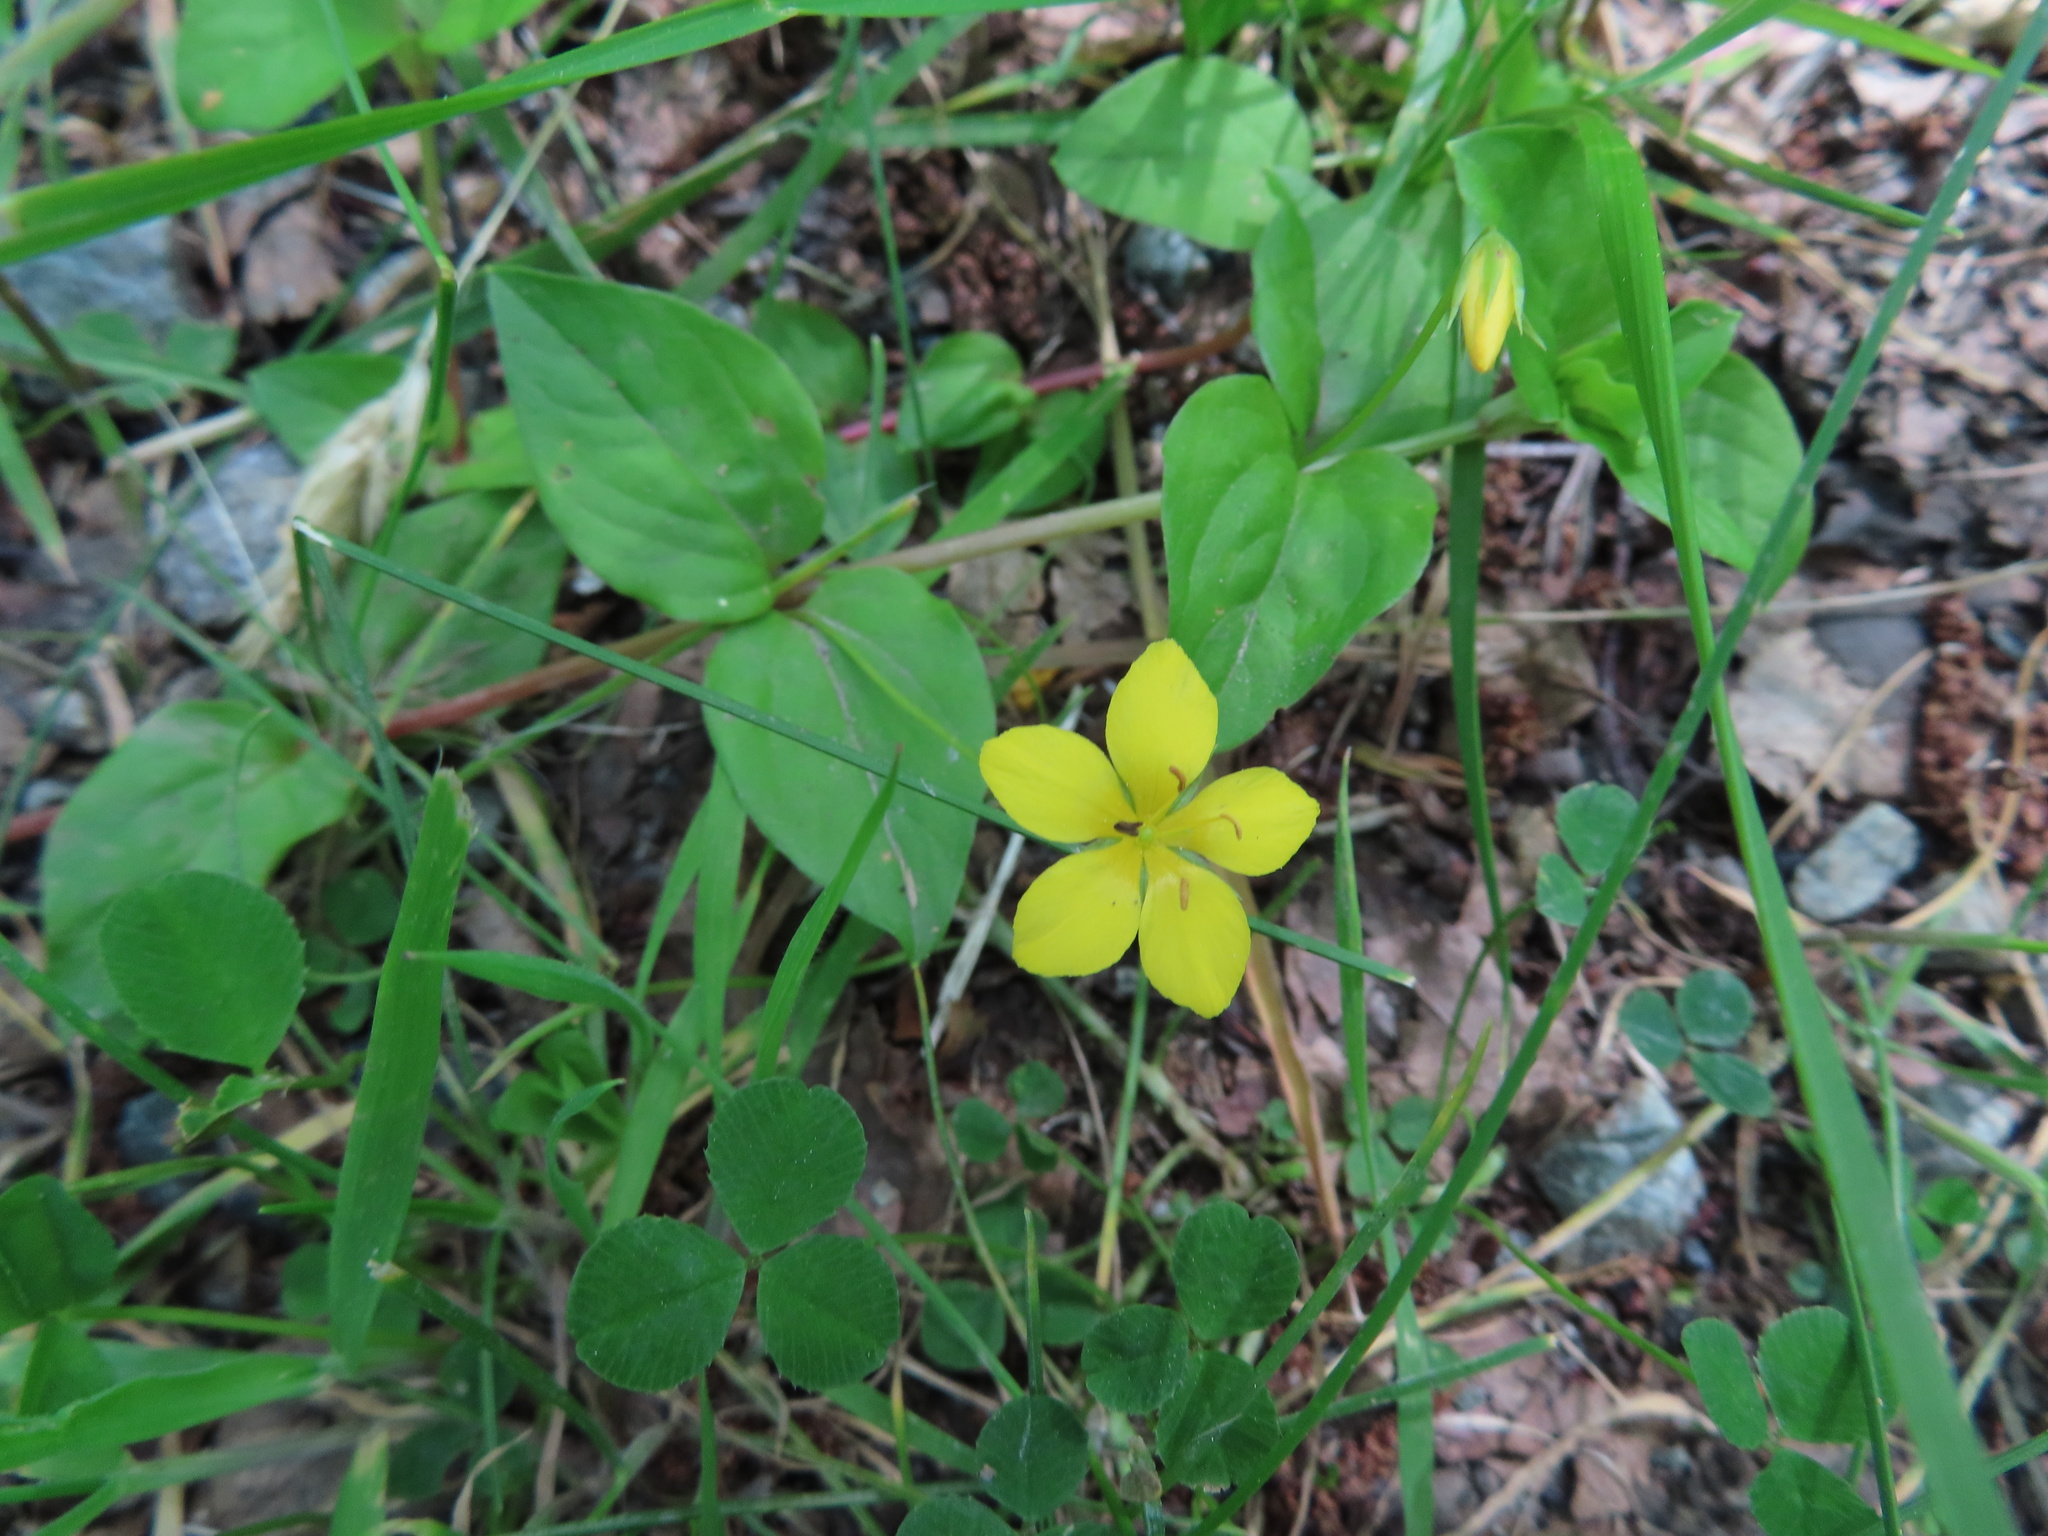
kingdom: Plantae
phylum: Tracheophyta
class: Magnoliopsida
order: Ericales
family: Primulaceae
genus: Lysimachia
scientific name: Lysimachia nemorum
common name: Yellow pimpernel
